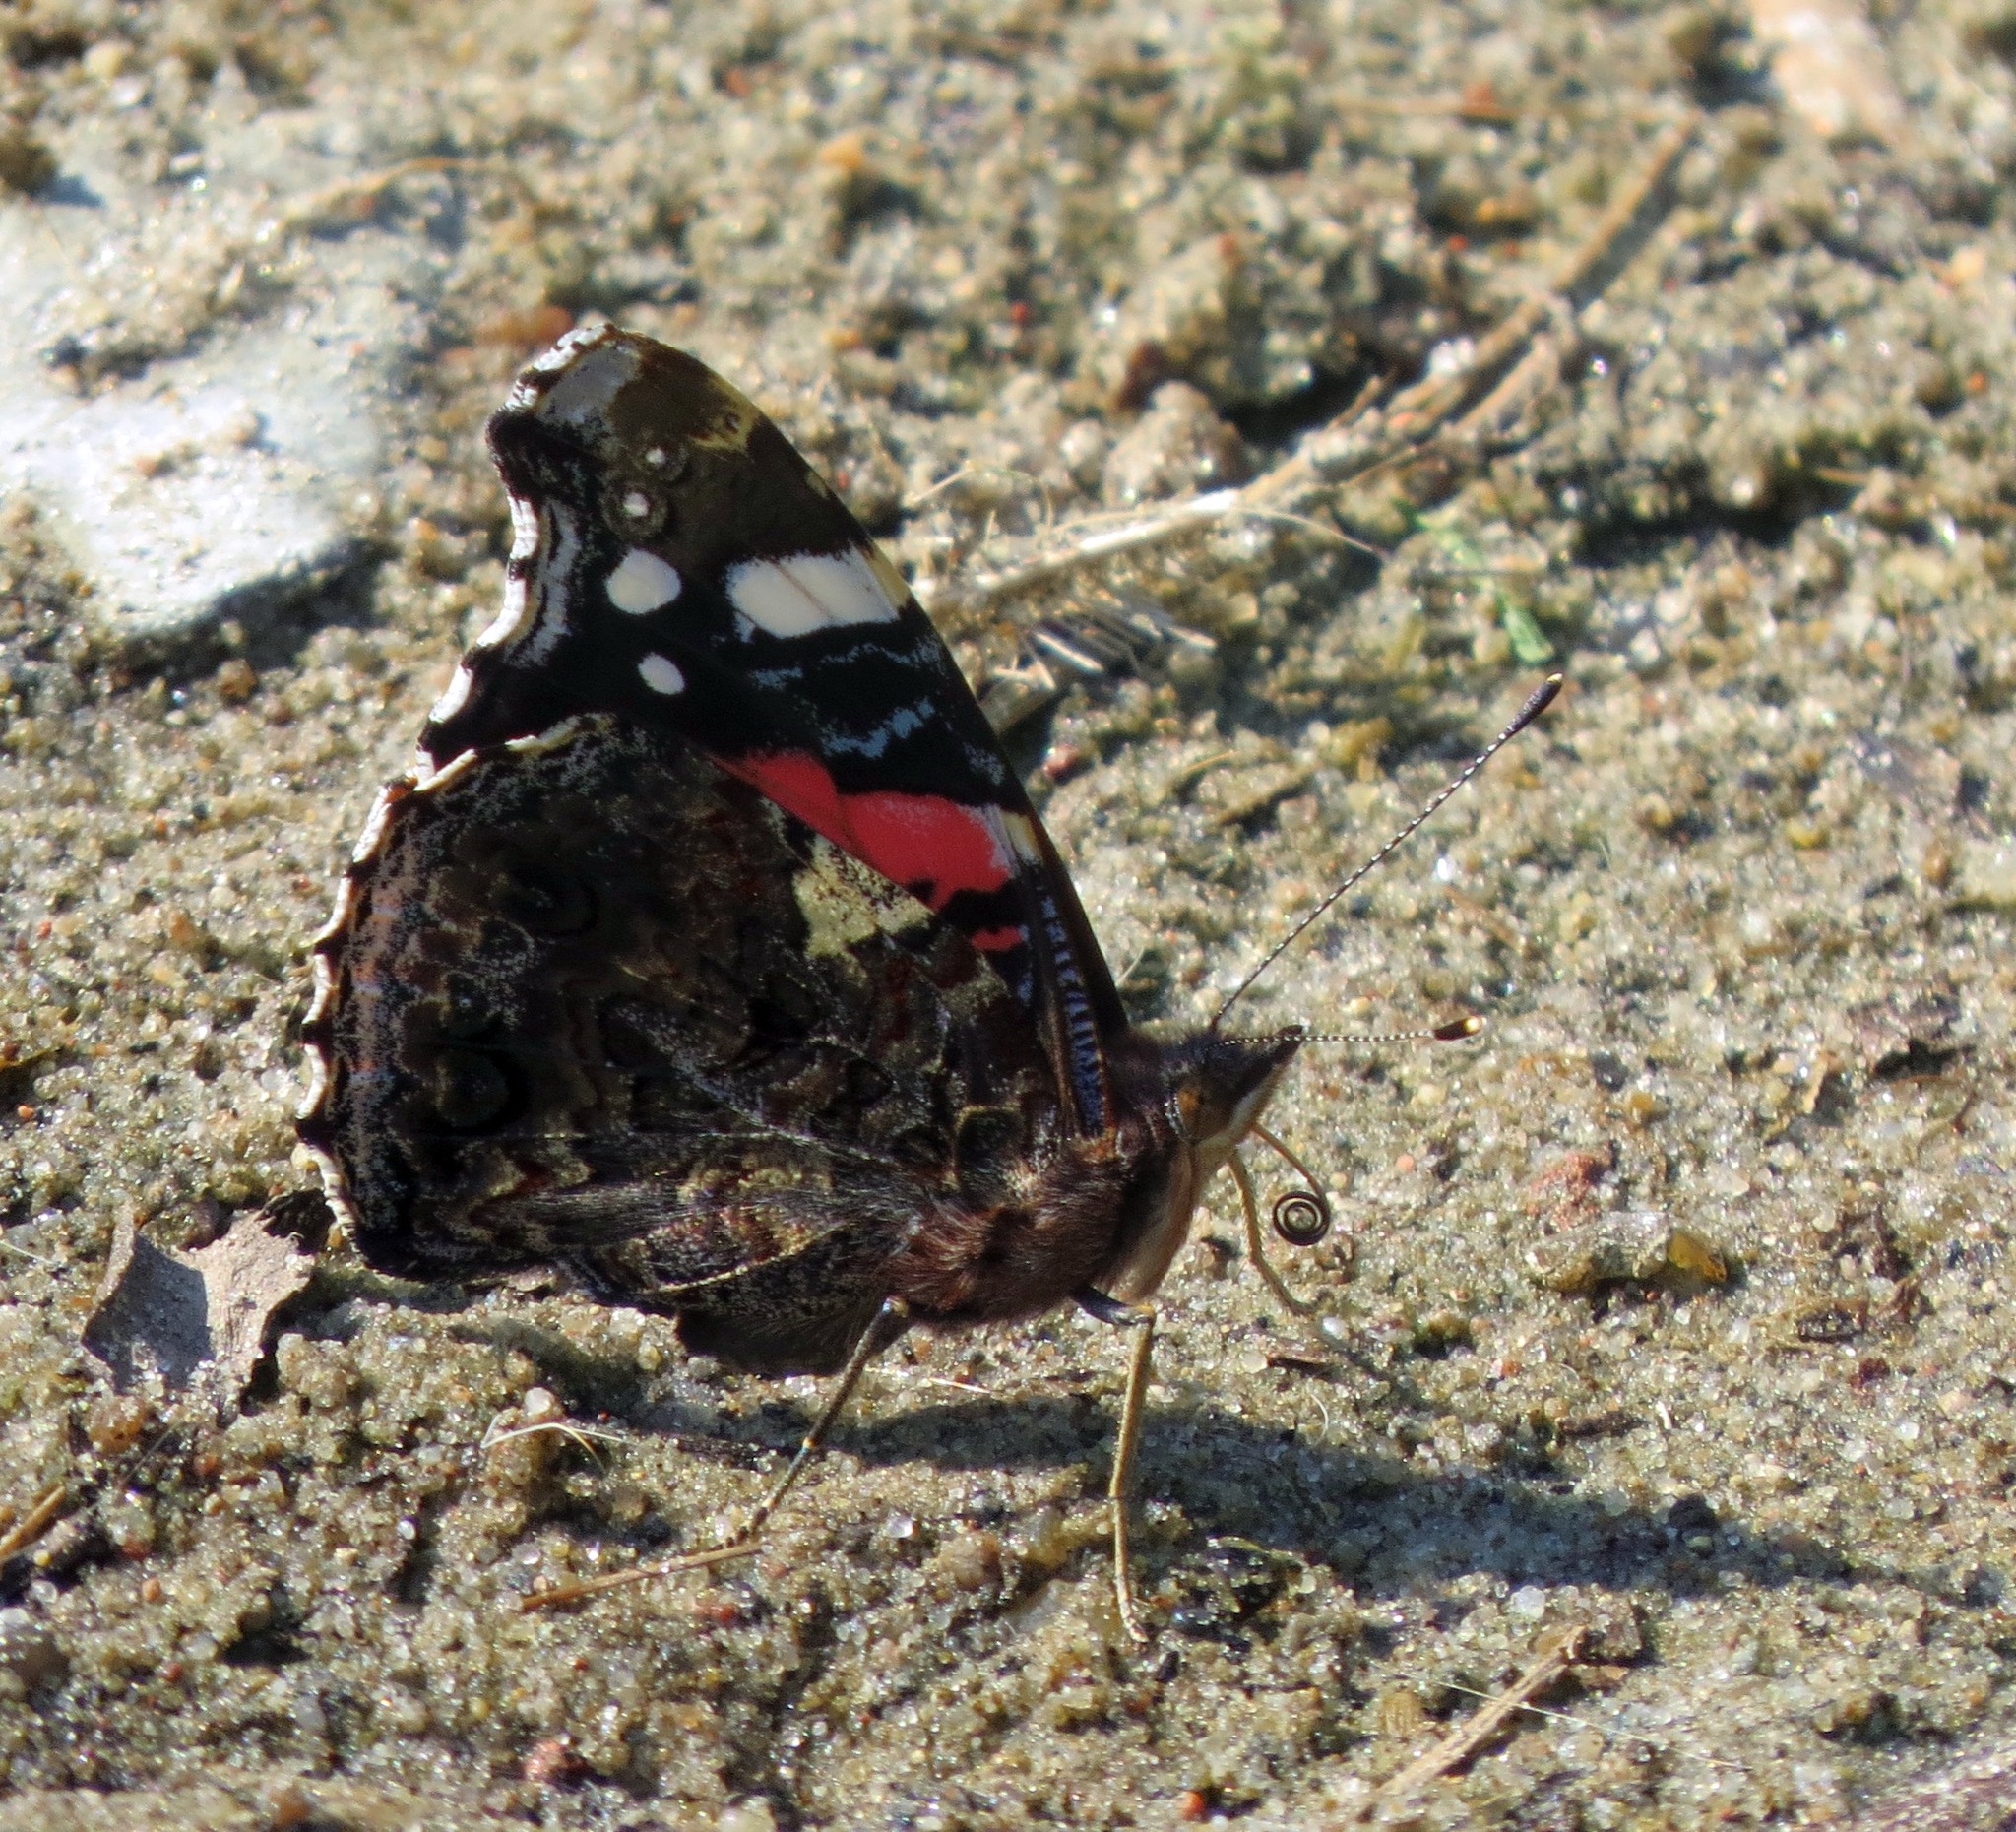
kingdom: Animalia
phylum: Arthropoda
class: Insecta
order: Lepidoptera
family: Nymphalidae
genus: Vanessa
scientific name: Vanessa atalanta
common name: Red admiral
